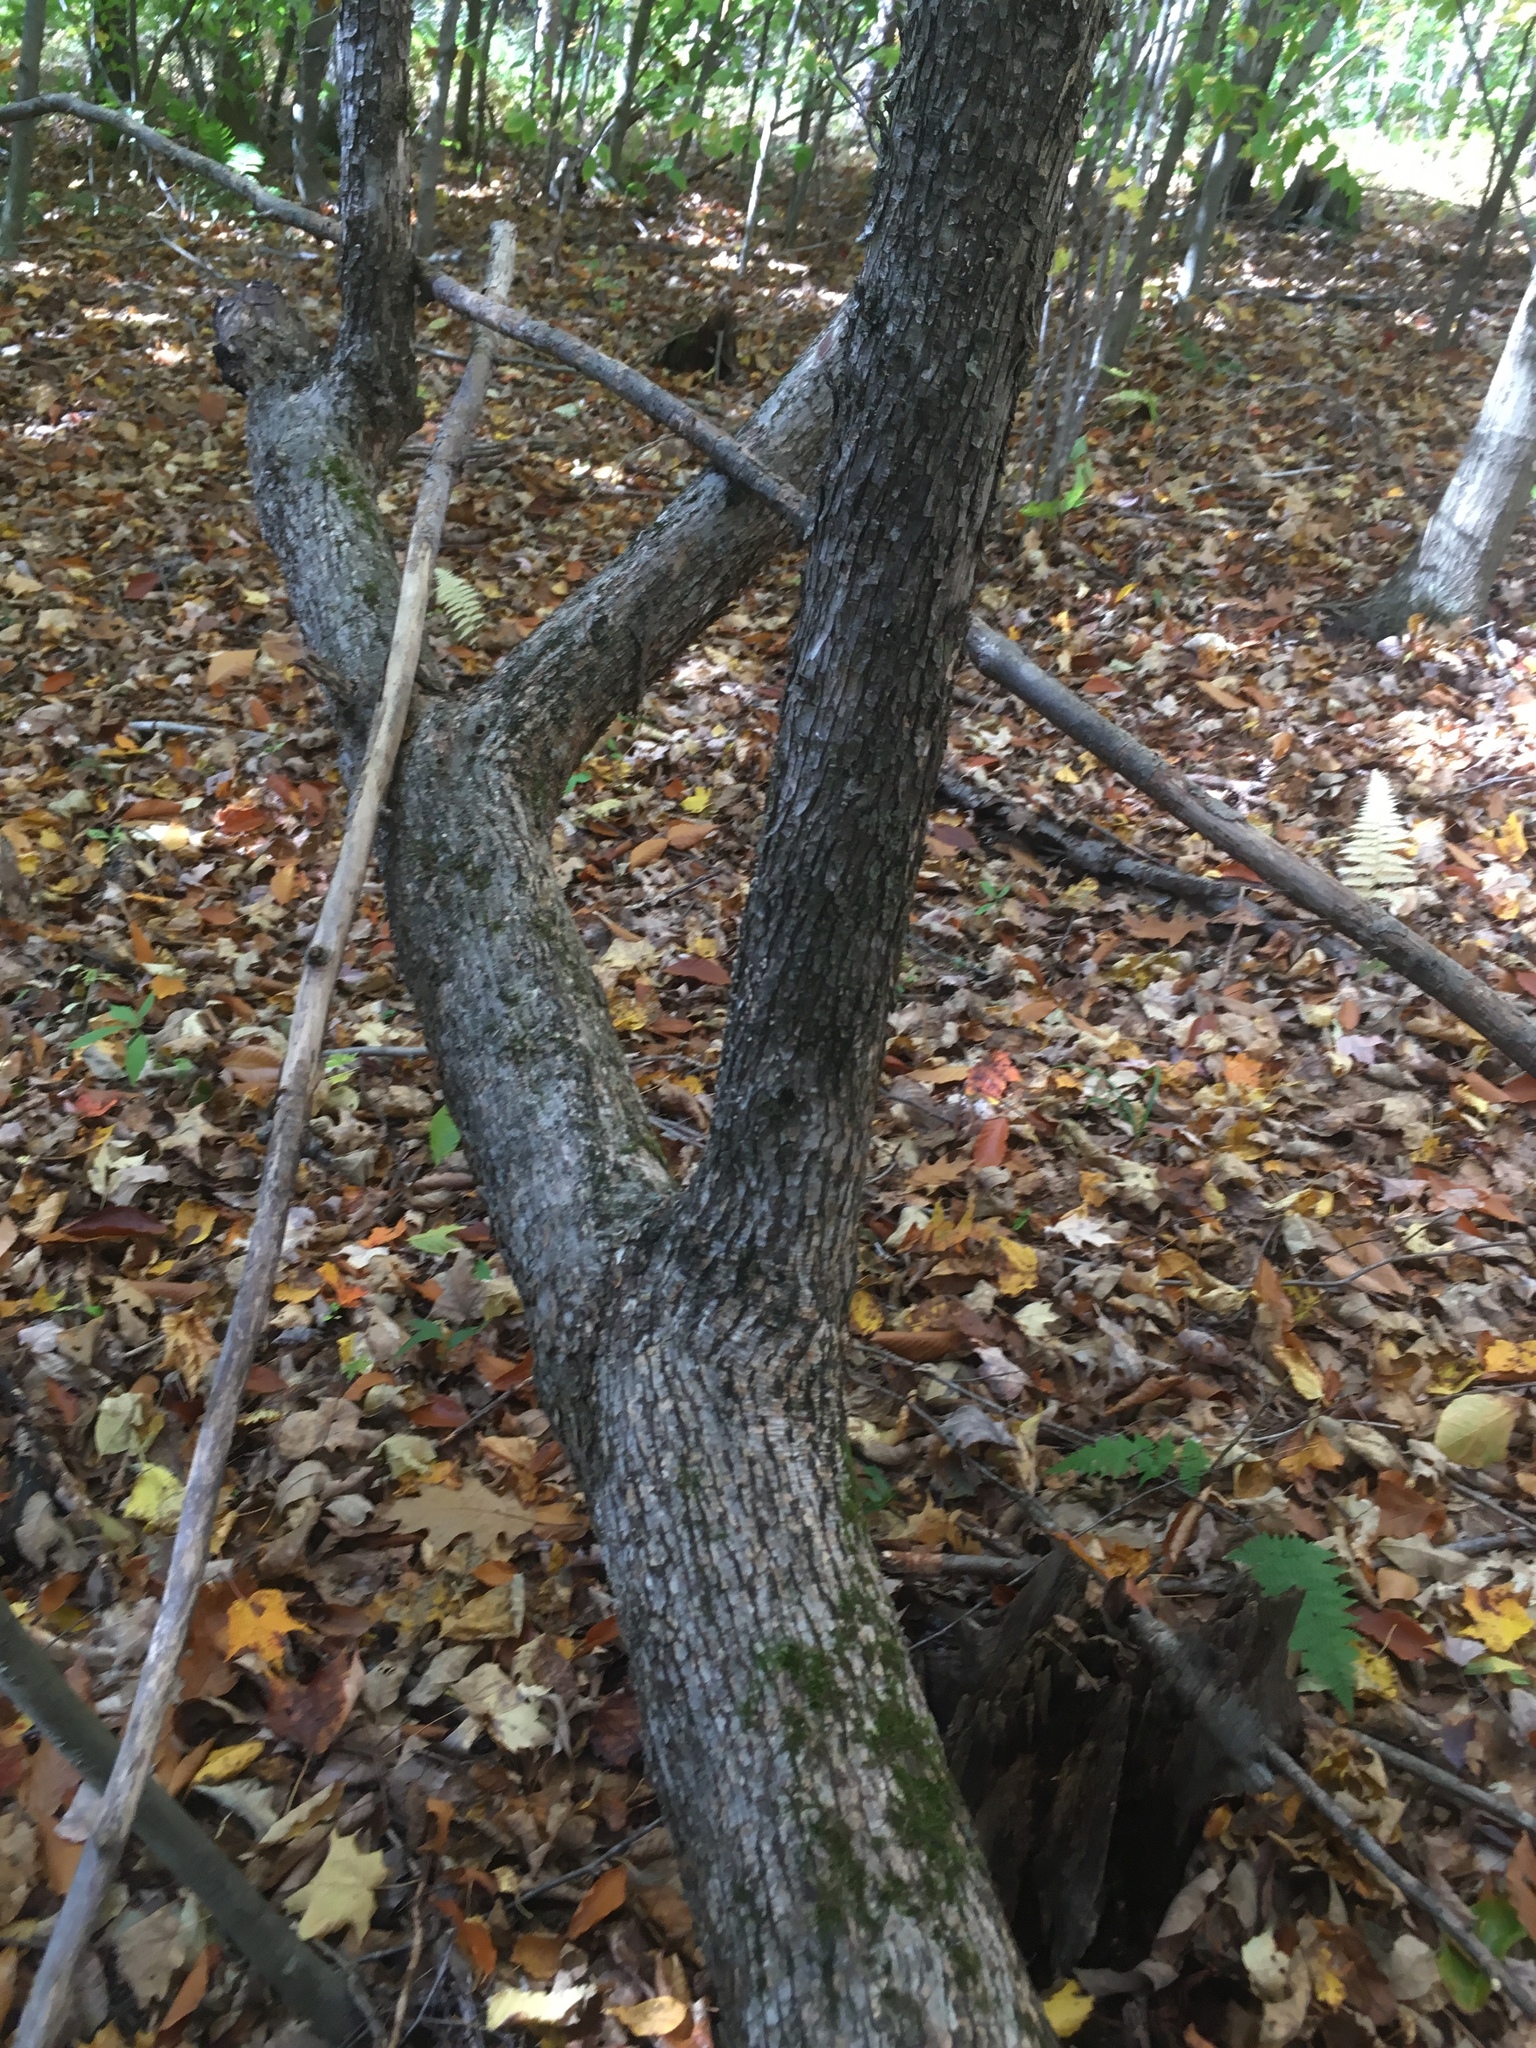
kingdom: Plantae
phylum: Tracheophyta
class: Magnoliopsida
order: Fagales
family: Betulaceae
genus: Ostrya
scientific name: Ostrya virginiana
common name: Ironwood
